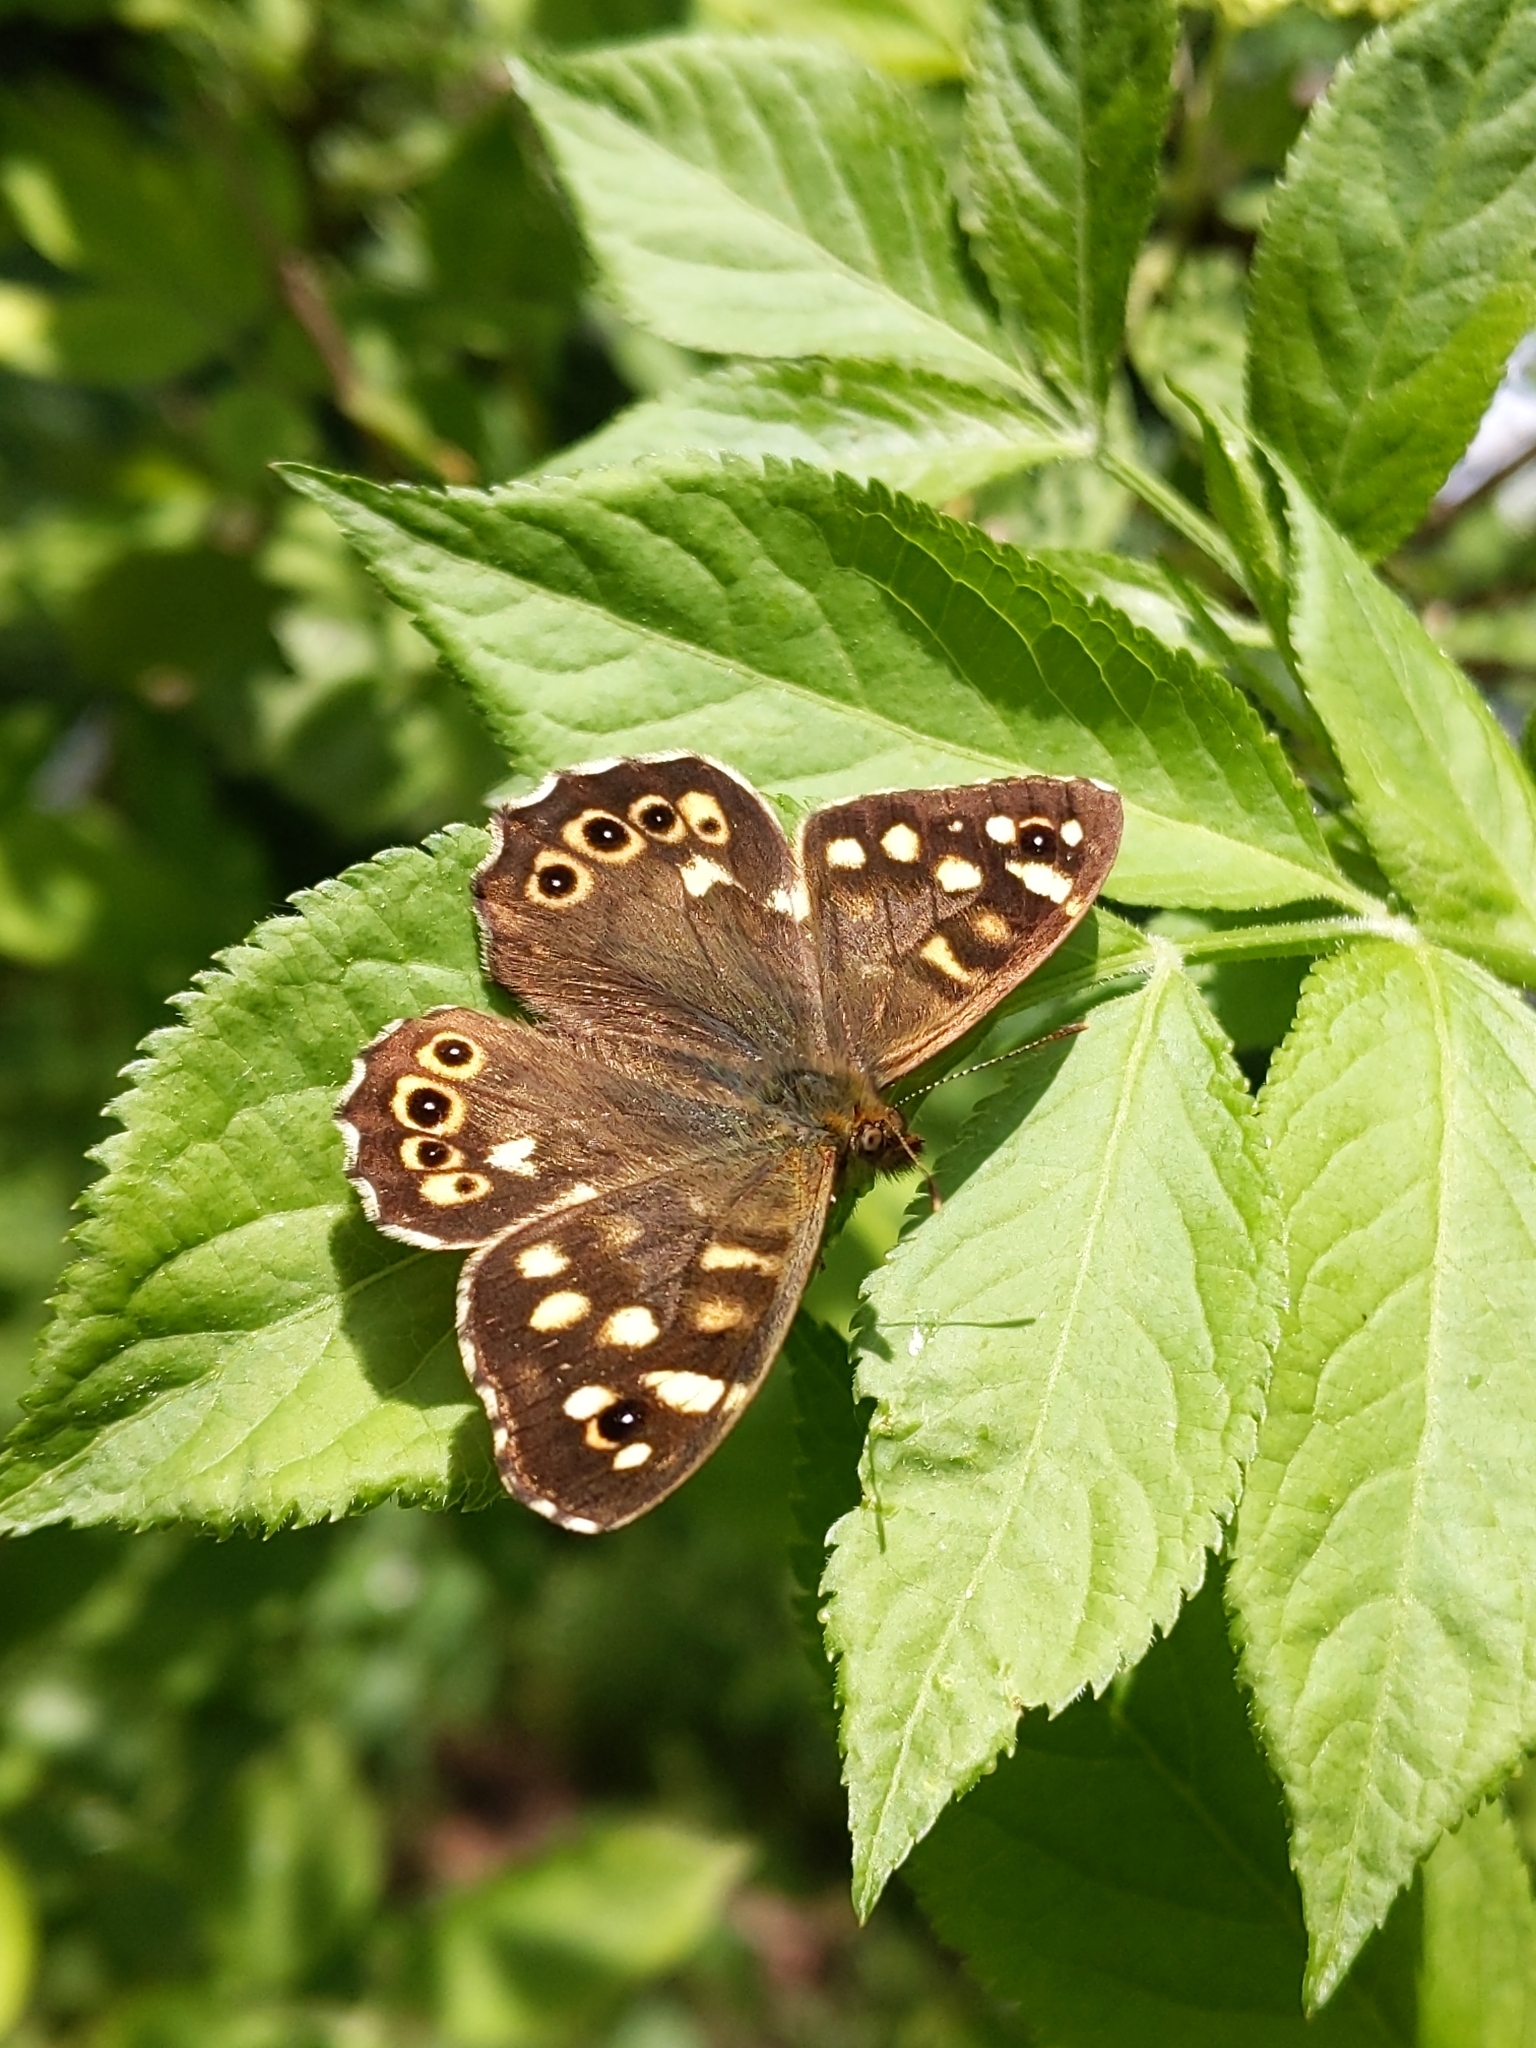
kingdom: Animalia
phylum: Arthropoda
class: Insecta
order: Lepidoptera
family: Nymphalidae
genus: Pararge
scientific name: Pararge aegeria
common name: Speckled wood
